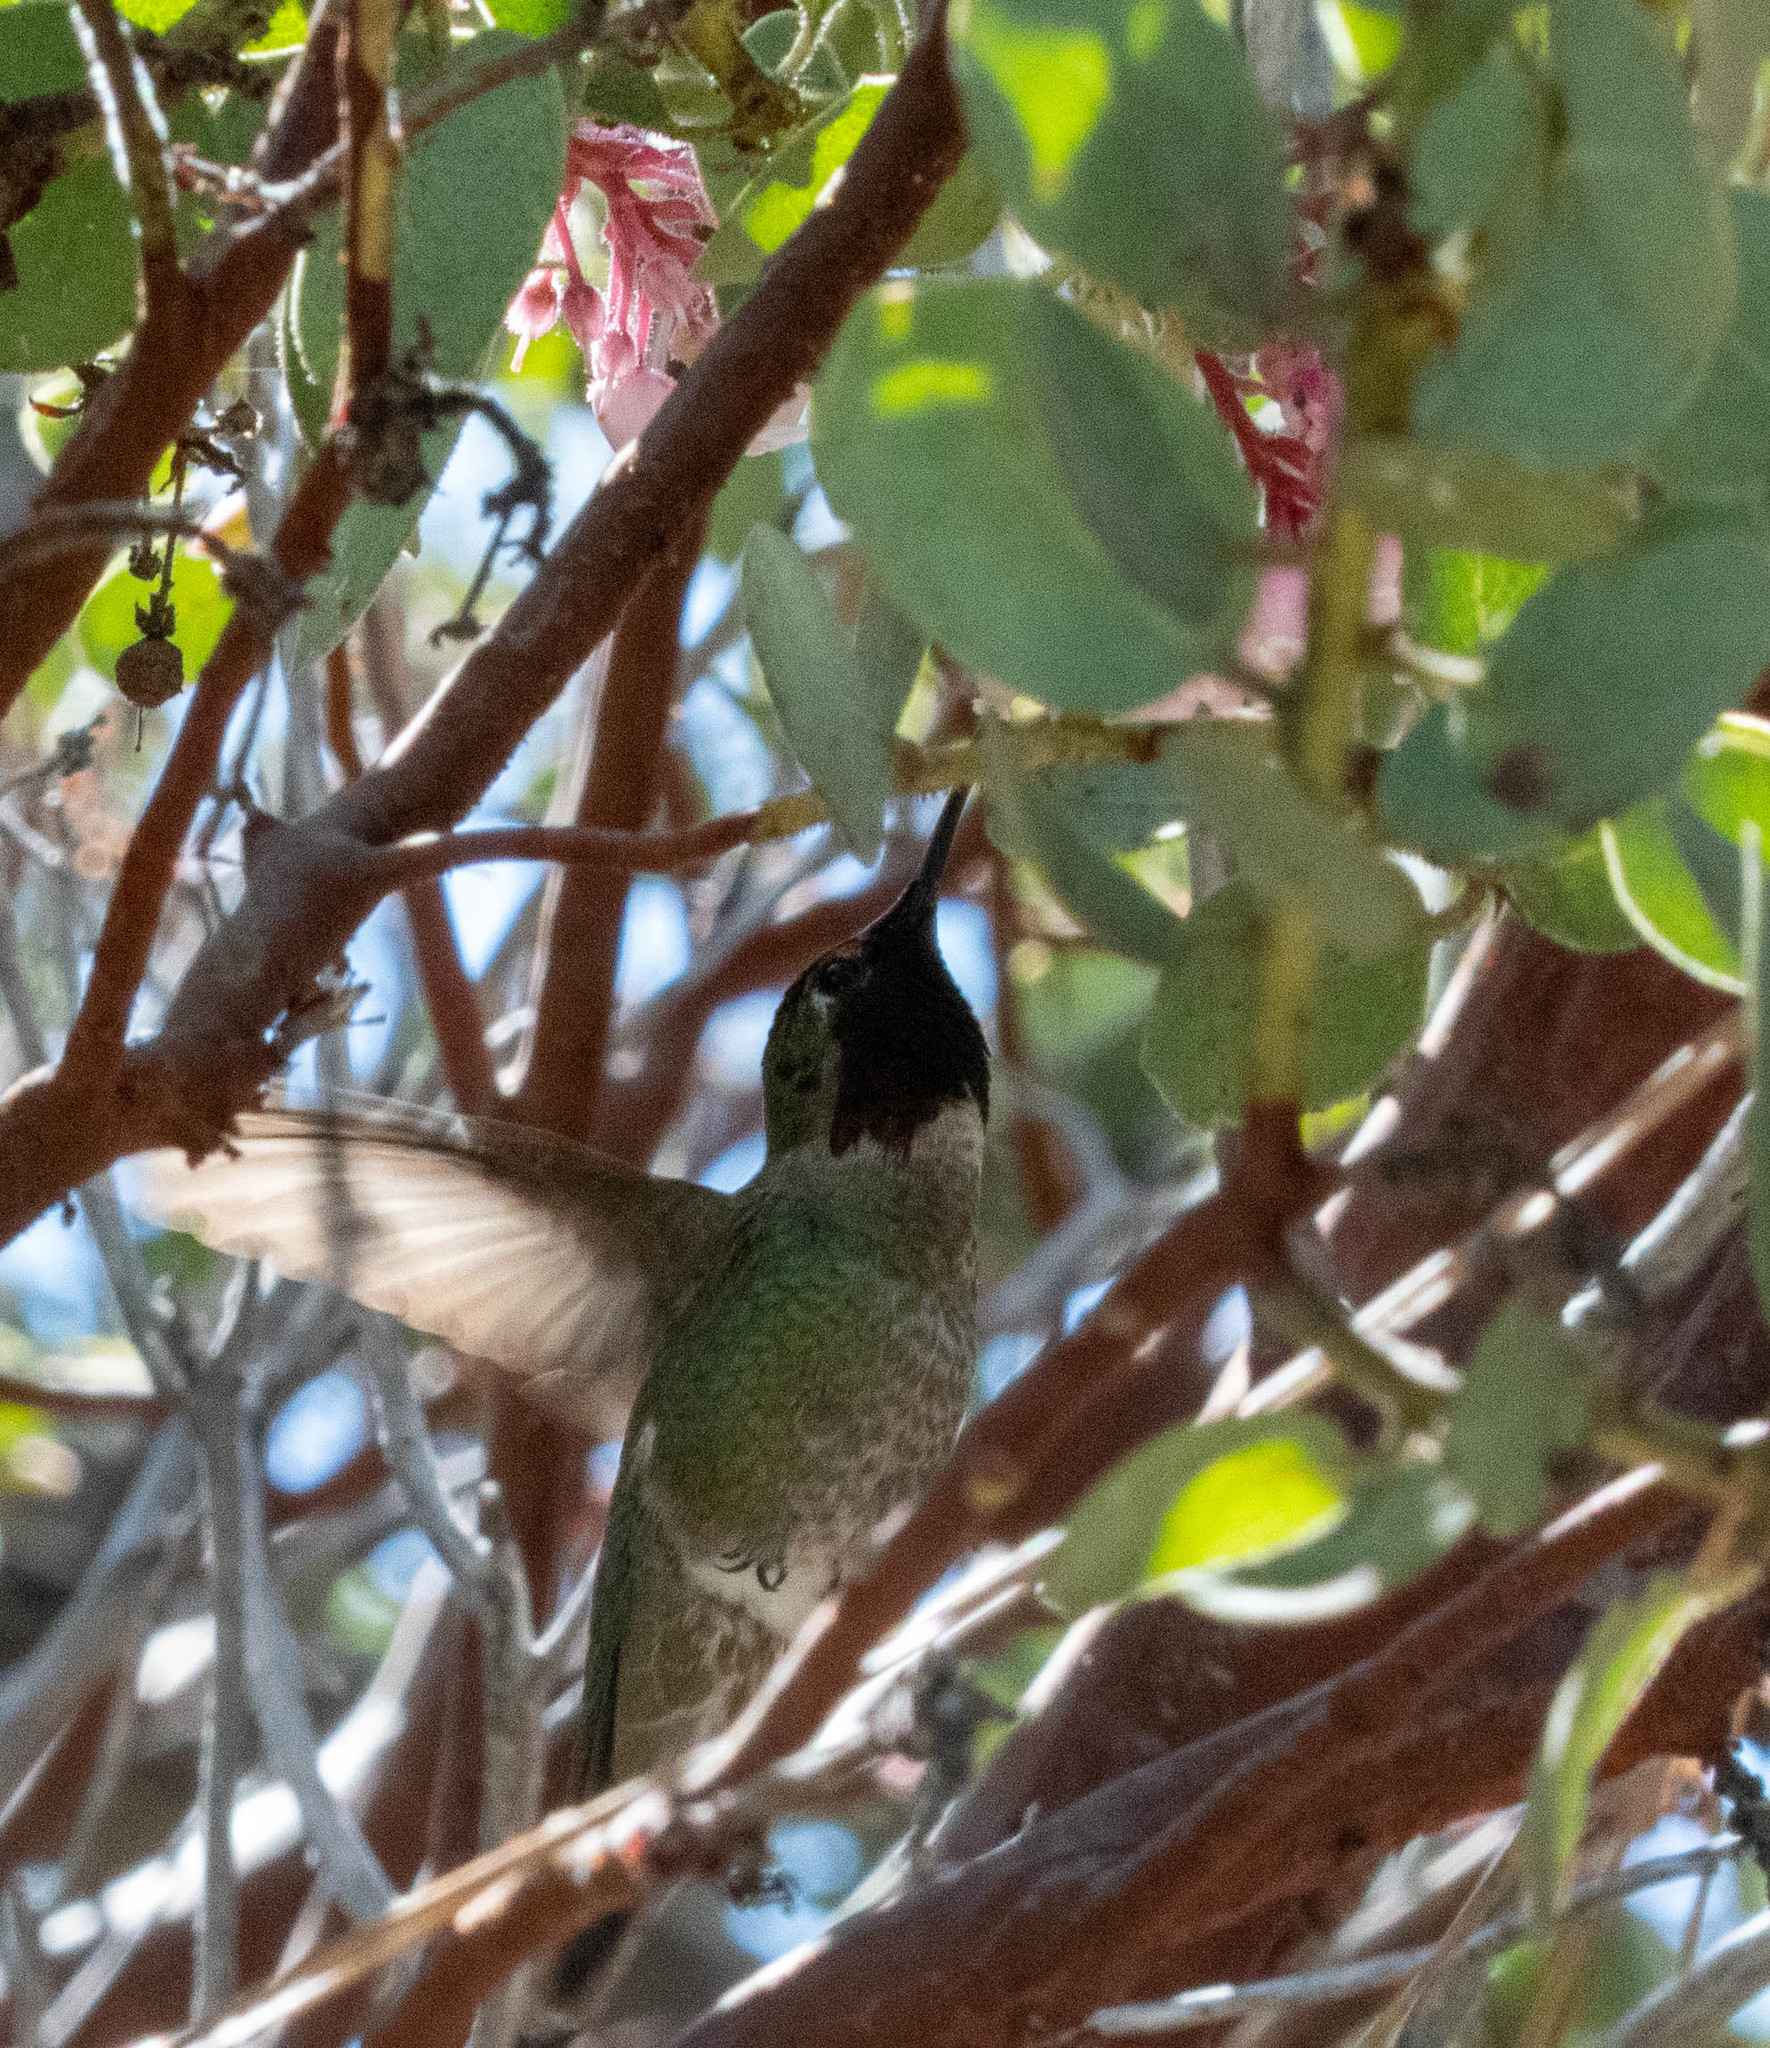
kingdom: Animalia
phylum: Chordata
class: Aves
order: Apodiformes
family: Trochilidae
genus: Calypte
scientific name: Calypte anna
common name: Anna's hummingbird
